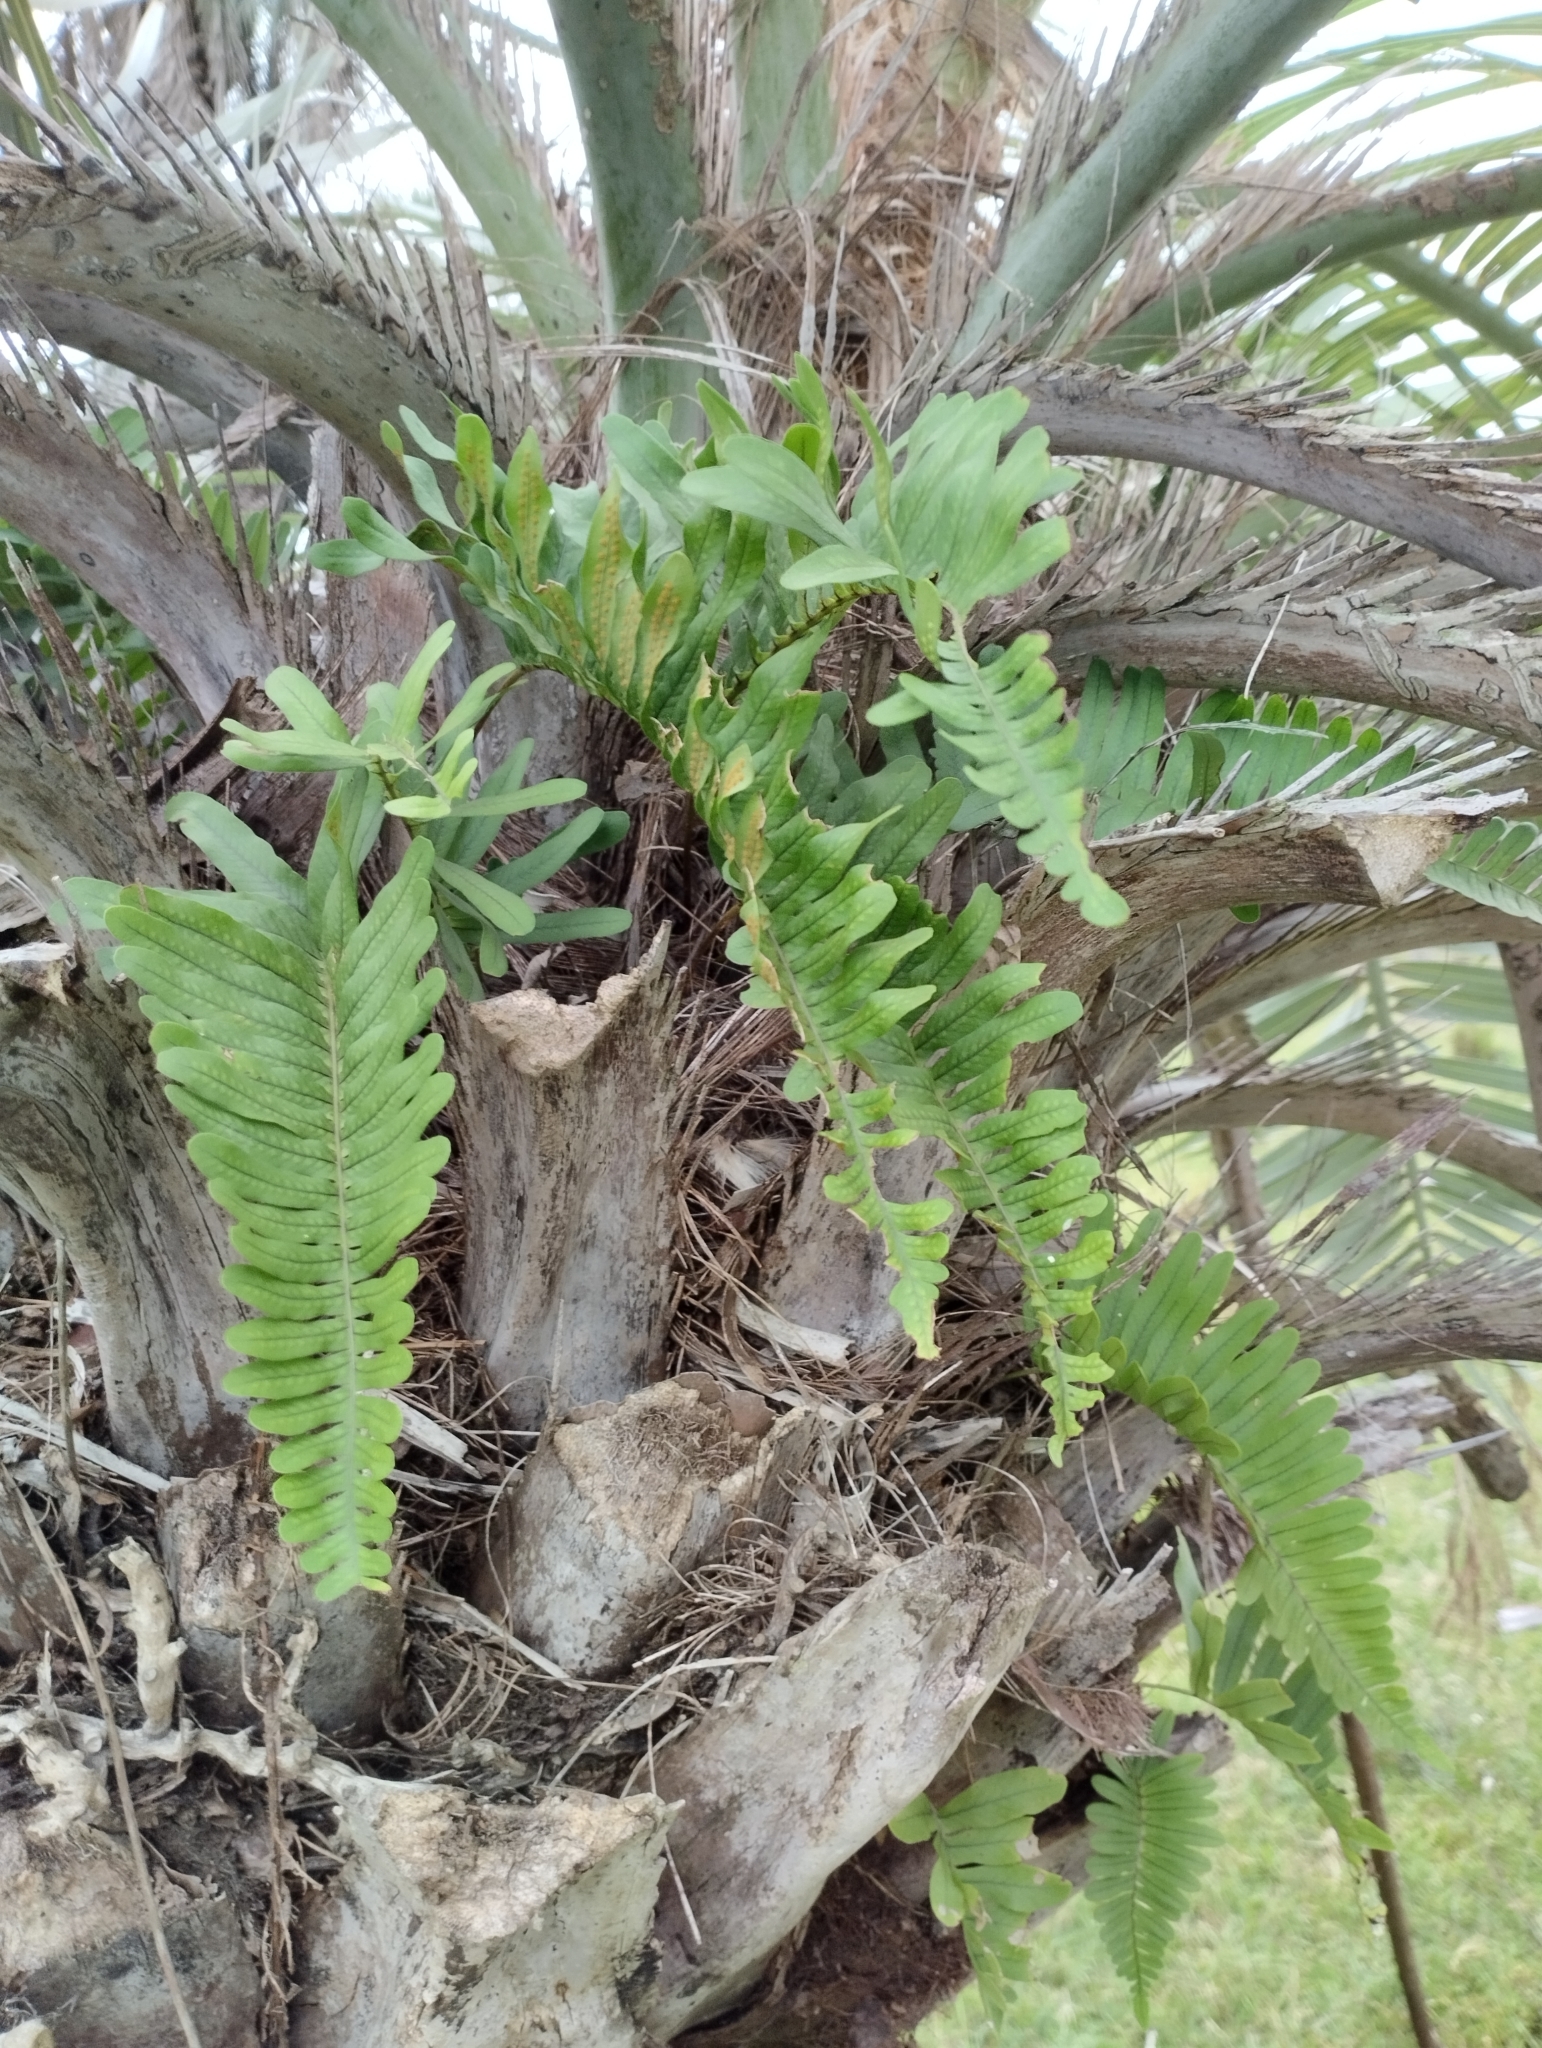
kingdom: Plantae
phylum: Tracheophyta
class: Polypodiopsida
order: Polypodiales
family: Polypodiaceae
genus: Serpocaulon
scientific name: Serpocaulon catharinae
